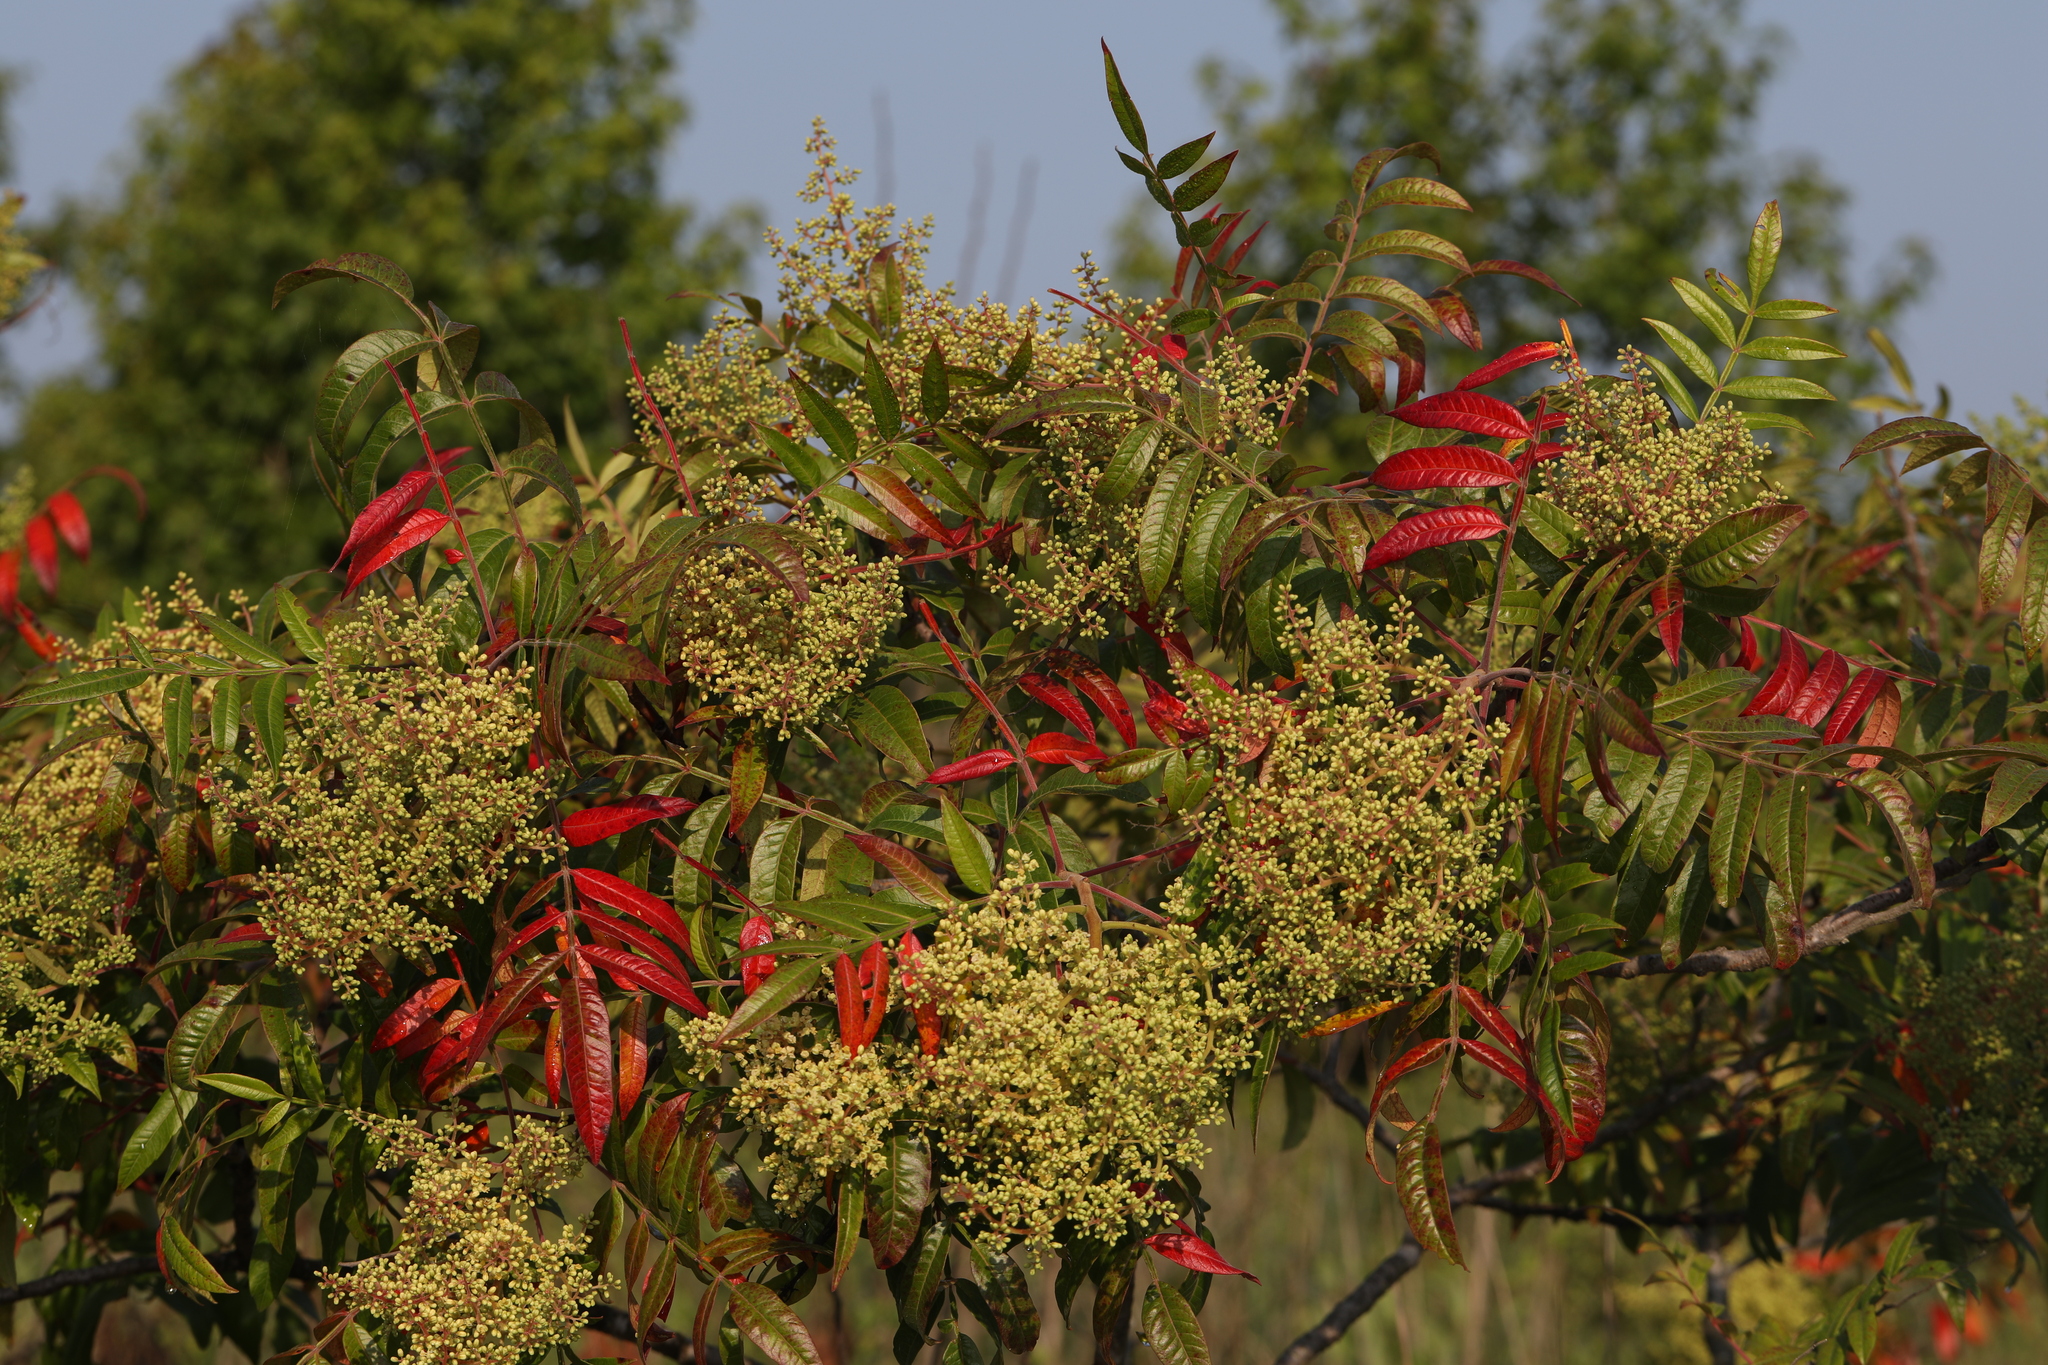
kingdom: Plantae
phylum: Tracheophyta
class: Magnoliopsida
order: Sapindales
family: Anacardiaceae
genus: Rhus
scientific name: Rhus copallina
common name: Shining sumac
